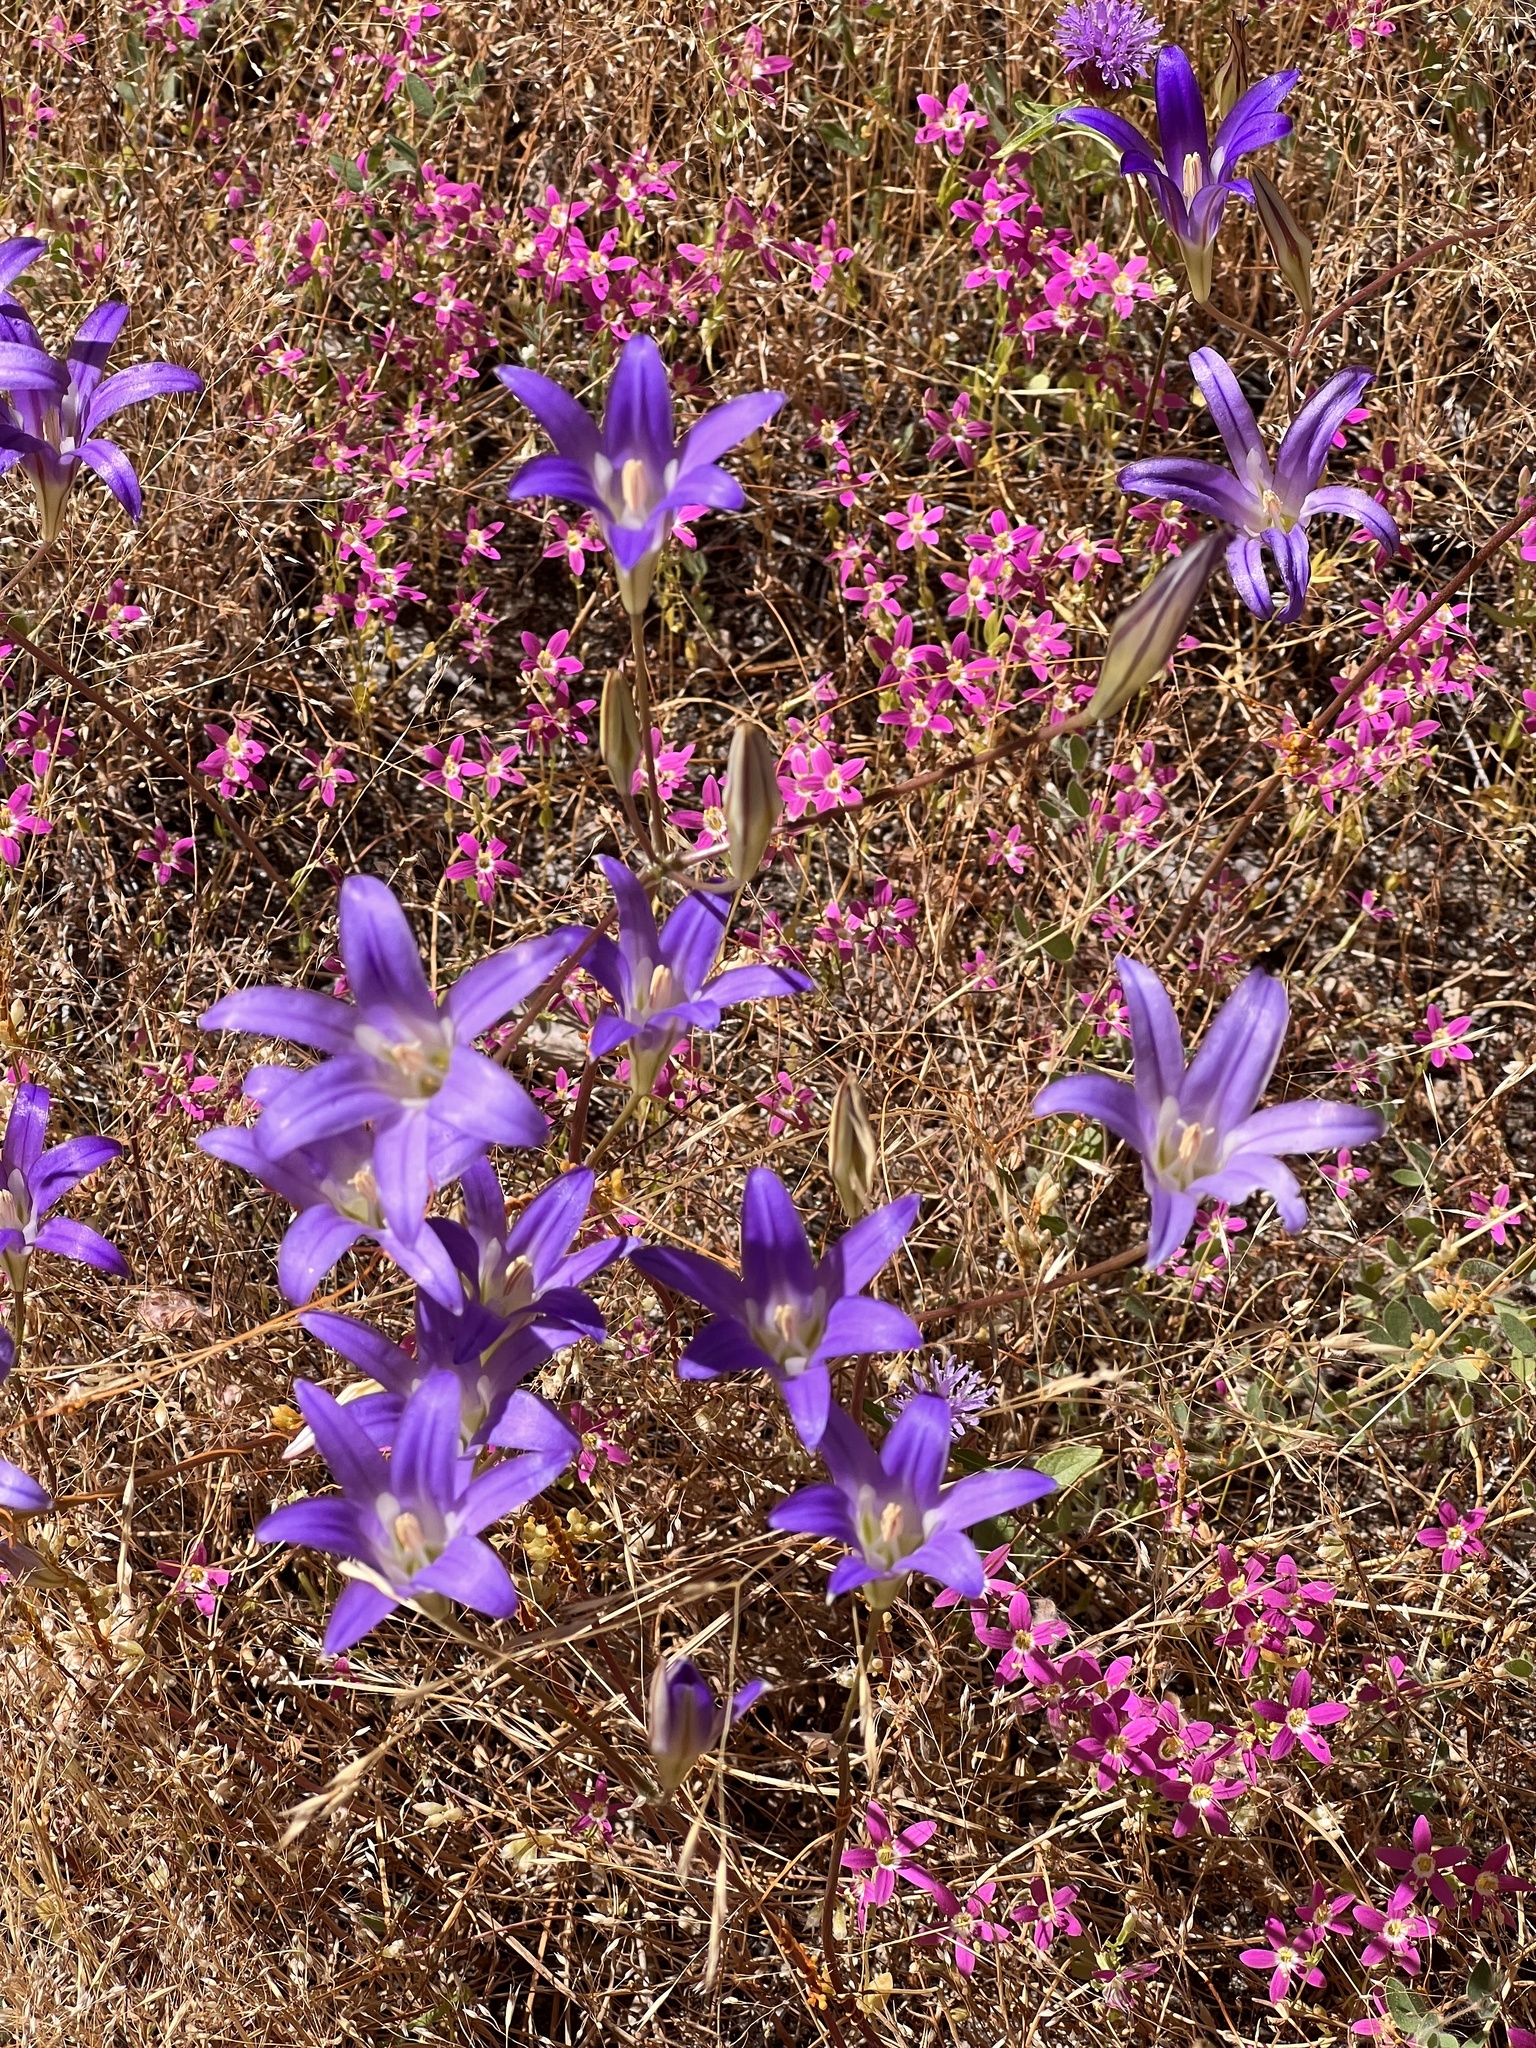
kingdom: Plantae
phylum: Tracheophyta
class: Liliopsida
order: Asparagales
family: Asparagaceae
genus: Brodiaea
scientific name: Brodiaea elegans
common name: Elegant cluster-lily
